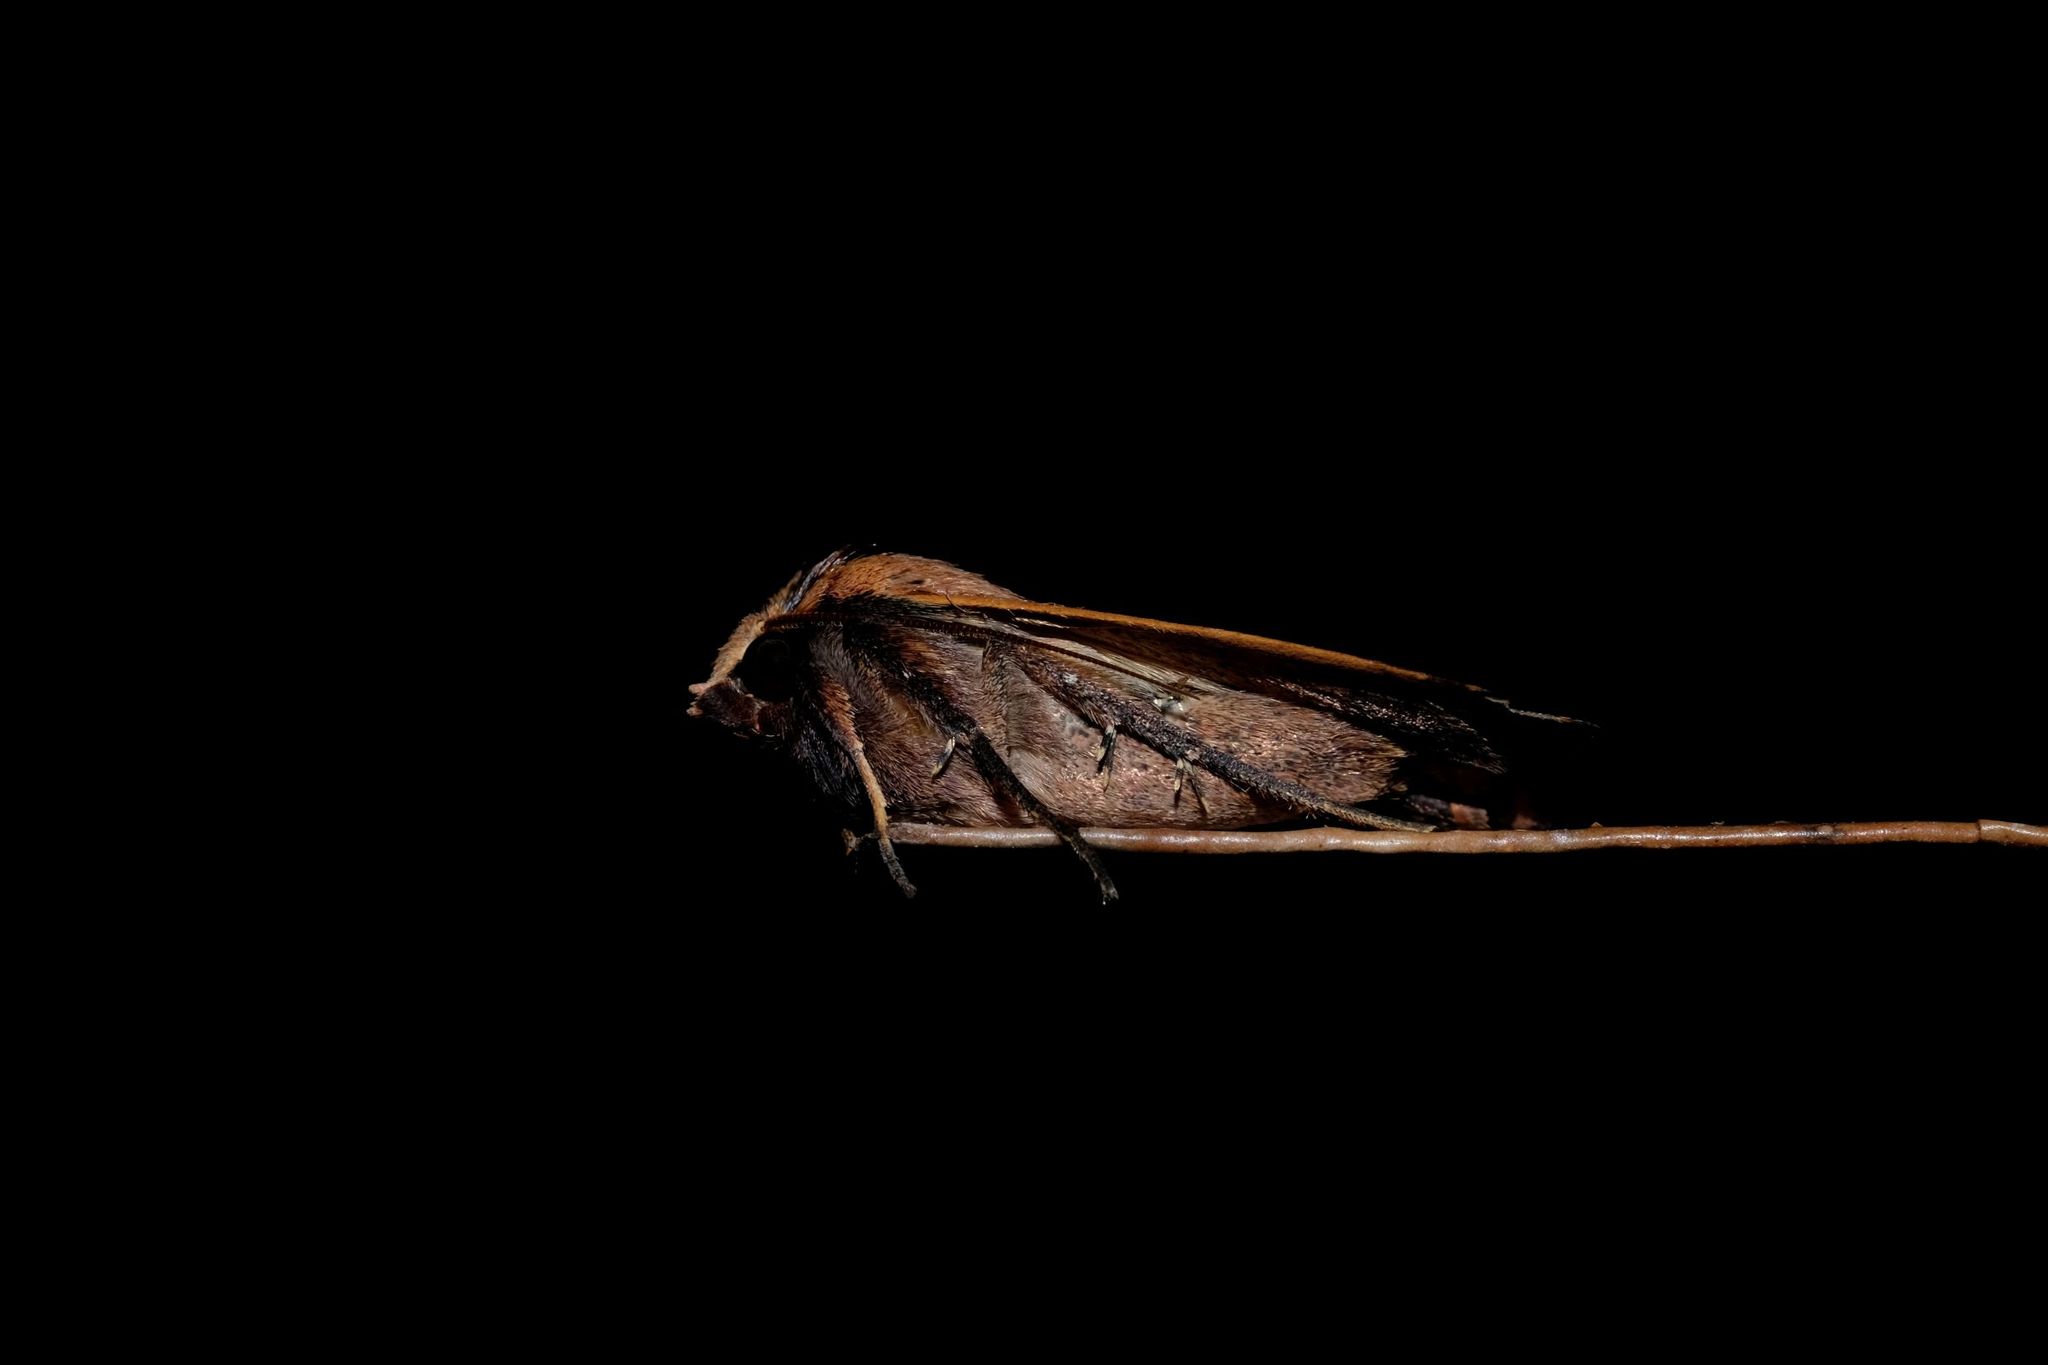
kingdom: Animalia
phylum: Arthropoda
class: Insecta
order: Lepidoptera
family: Noctuidae
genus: Diarsia
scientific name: Diarsia intermixta
